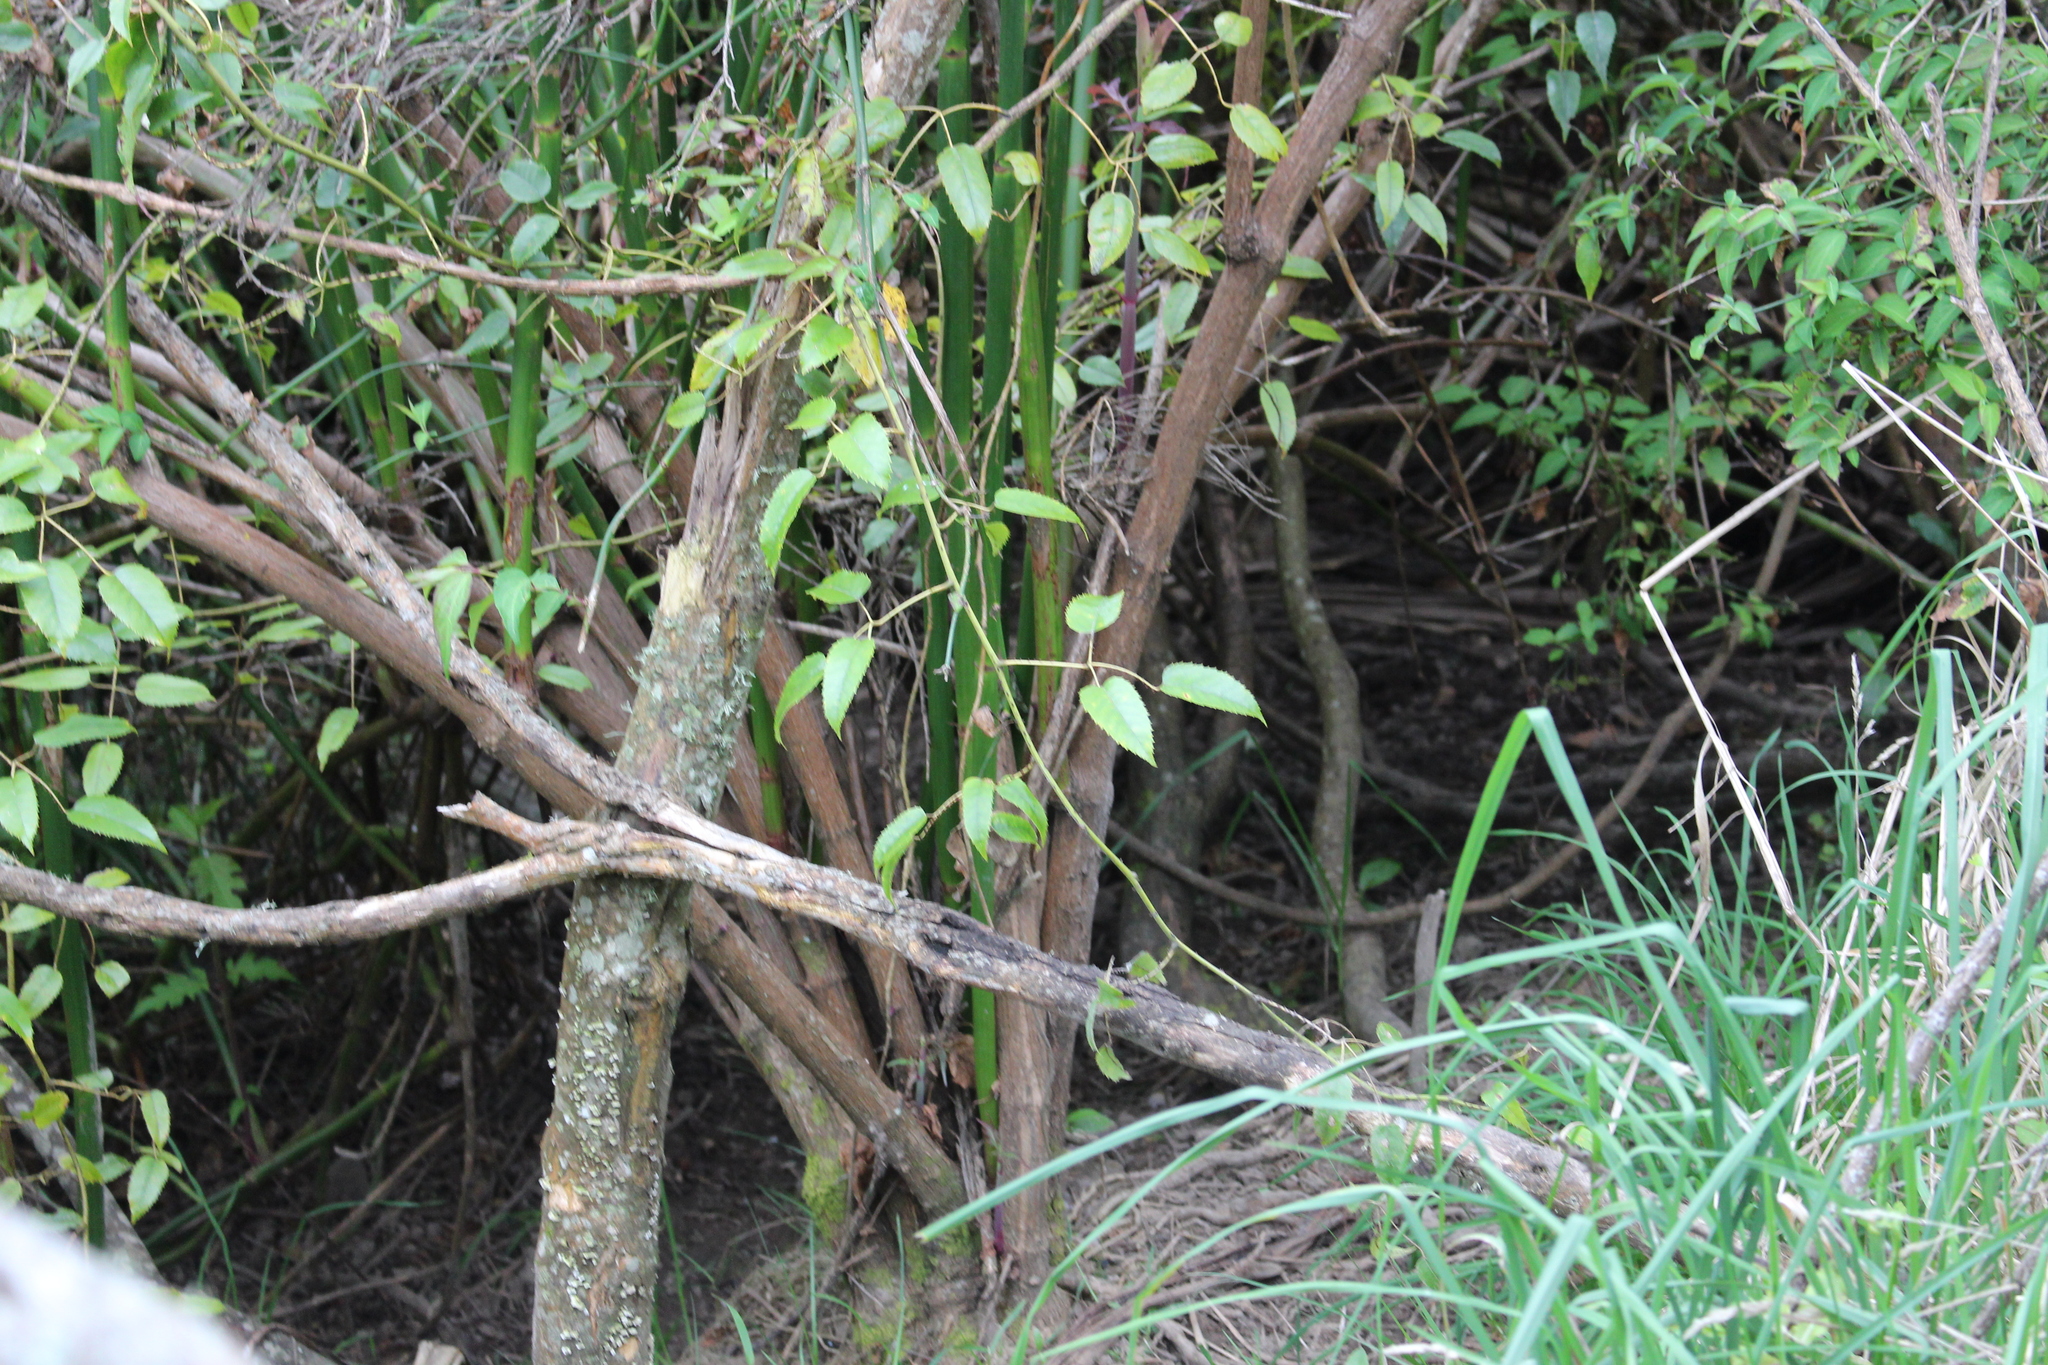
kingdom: Plantae
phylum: Tracheophyta
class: Magnoliopsida
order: Dipsacales
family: Caprifoliaceae
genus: Leycesteria
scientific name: Leycesteria formosa
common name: Himalayan honeysuckle
